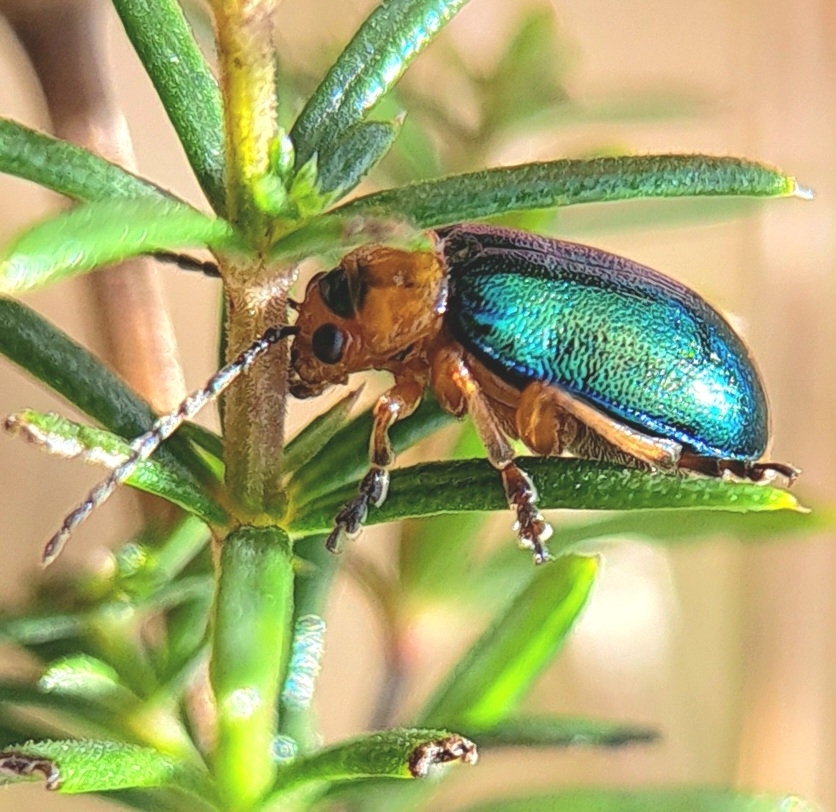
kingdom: Animalia
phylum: Arthropoda
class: Insecta
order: Coleoptera
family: Chrysomelidae
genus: Sermylassa
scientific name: Sermylassa halensis
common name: Leaf beetle
